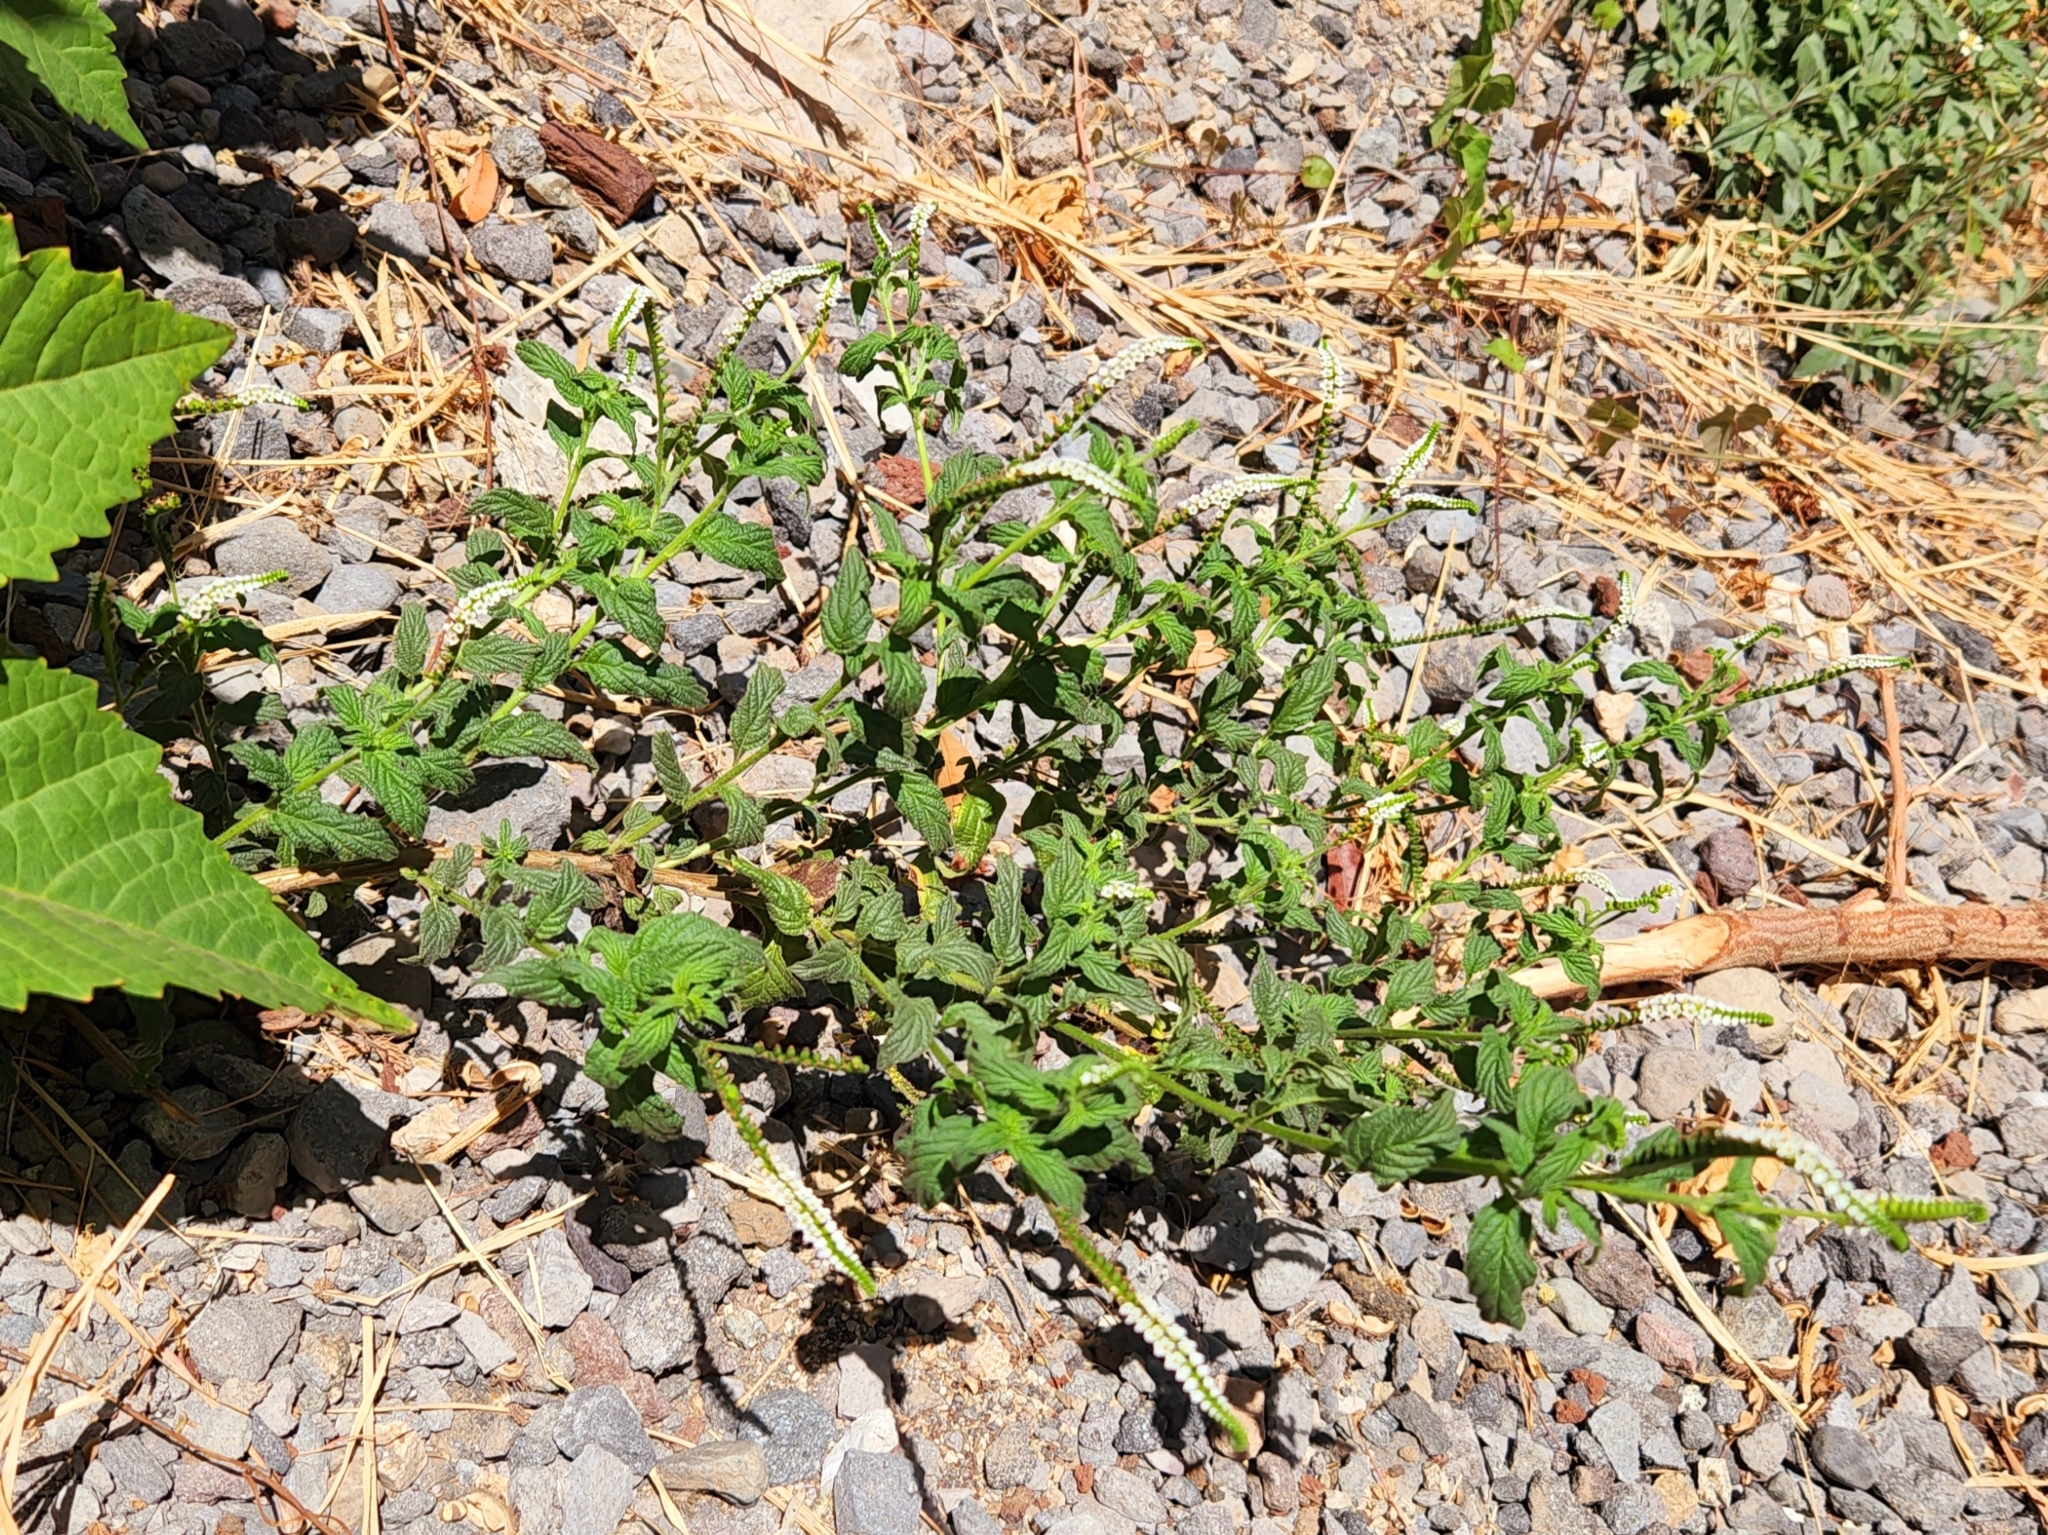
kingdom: Plantae
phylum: Tracheophyta
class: Magnoliopsida
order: Boraginales
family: Heliotropiaceae
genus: Heliotropium
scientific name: Heliotropium angiospermum
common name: Eye bright
